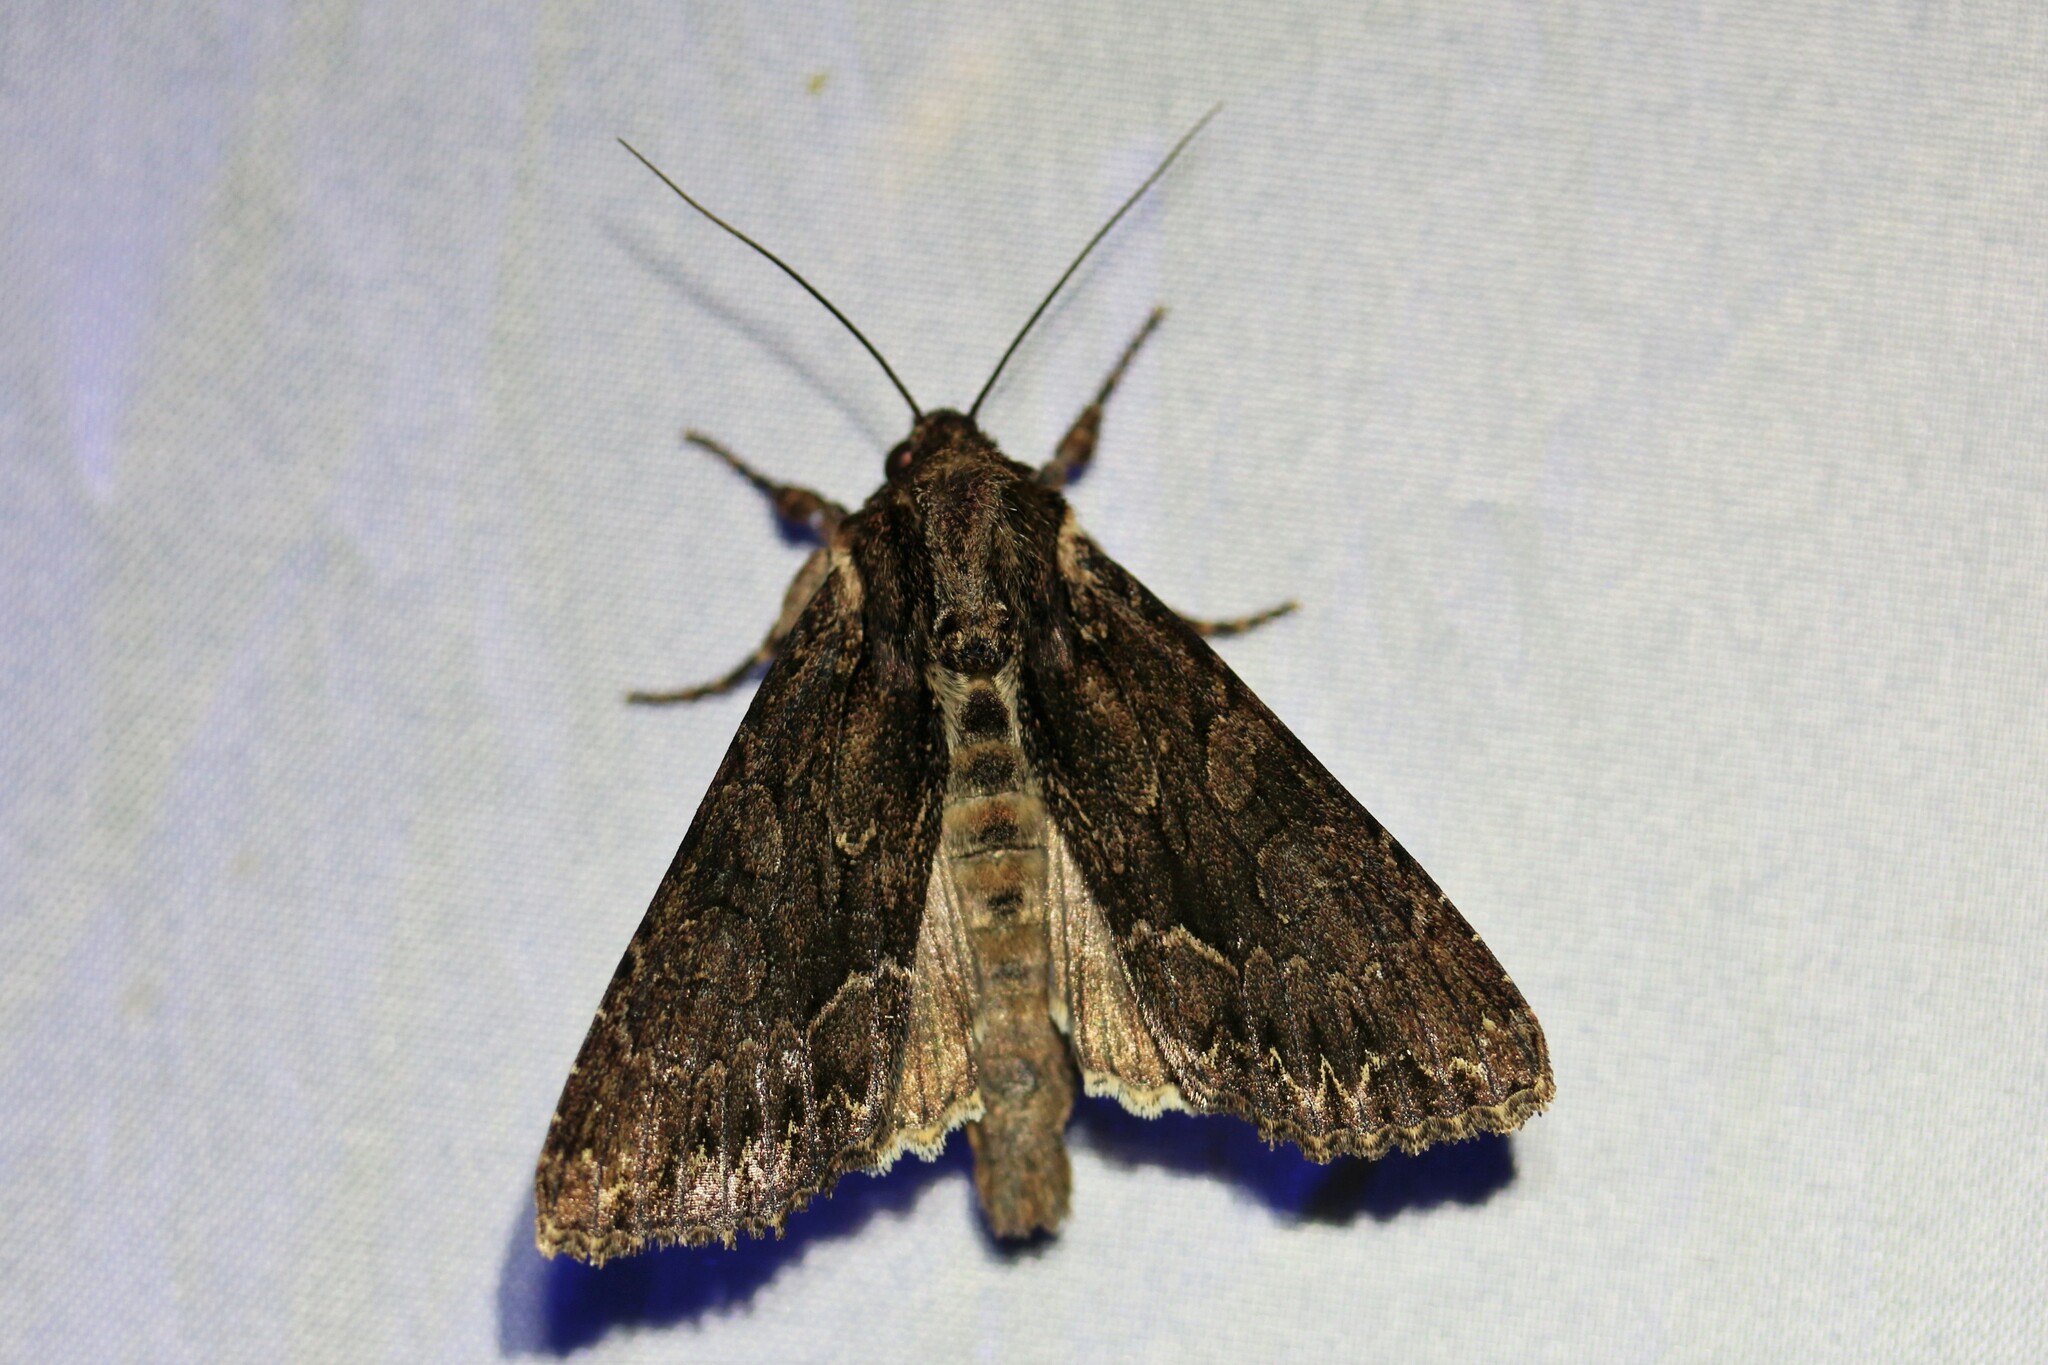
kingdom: Animalia
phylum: Arthropoda
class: Insecta
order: Lepidoptera
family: Noctuidae
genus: Apamea
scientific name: Apamea monoglypha
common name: Dark arches
